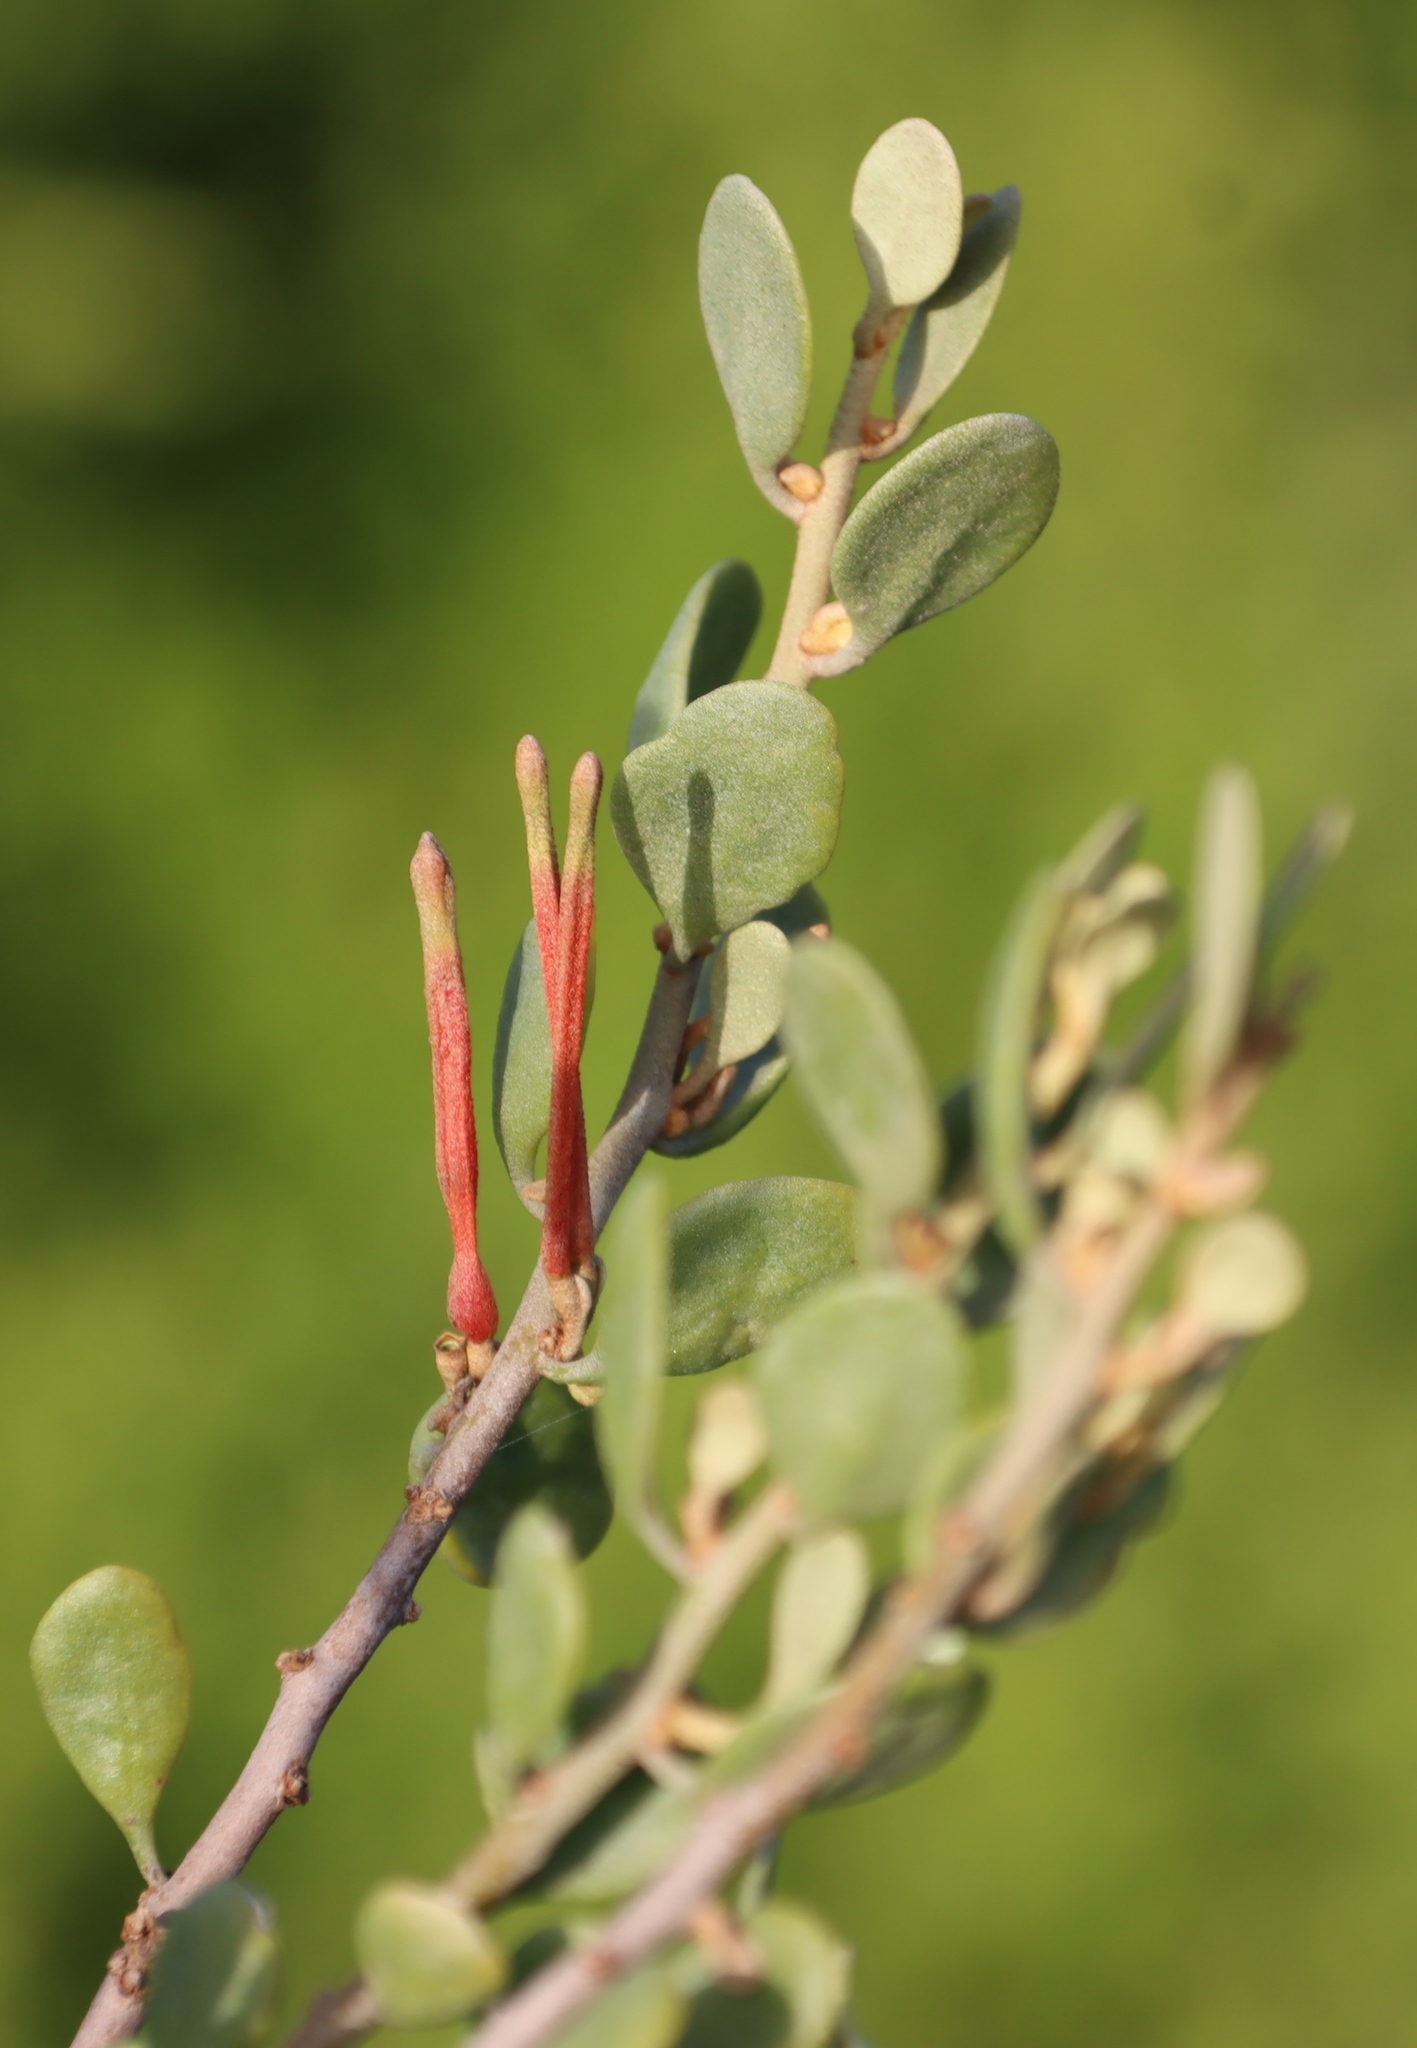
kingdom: Plantae
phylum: Tracheophyta
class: Magnoliopsida
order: Santalales
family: Loranthaceae
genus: Septulina
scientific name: Septulina glauca
